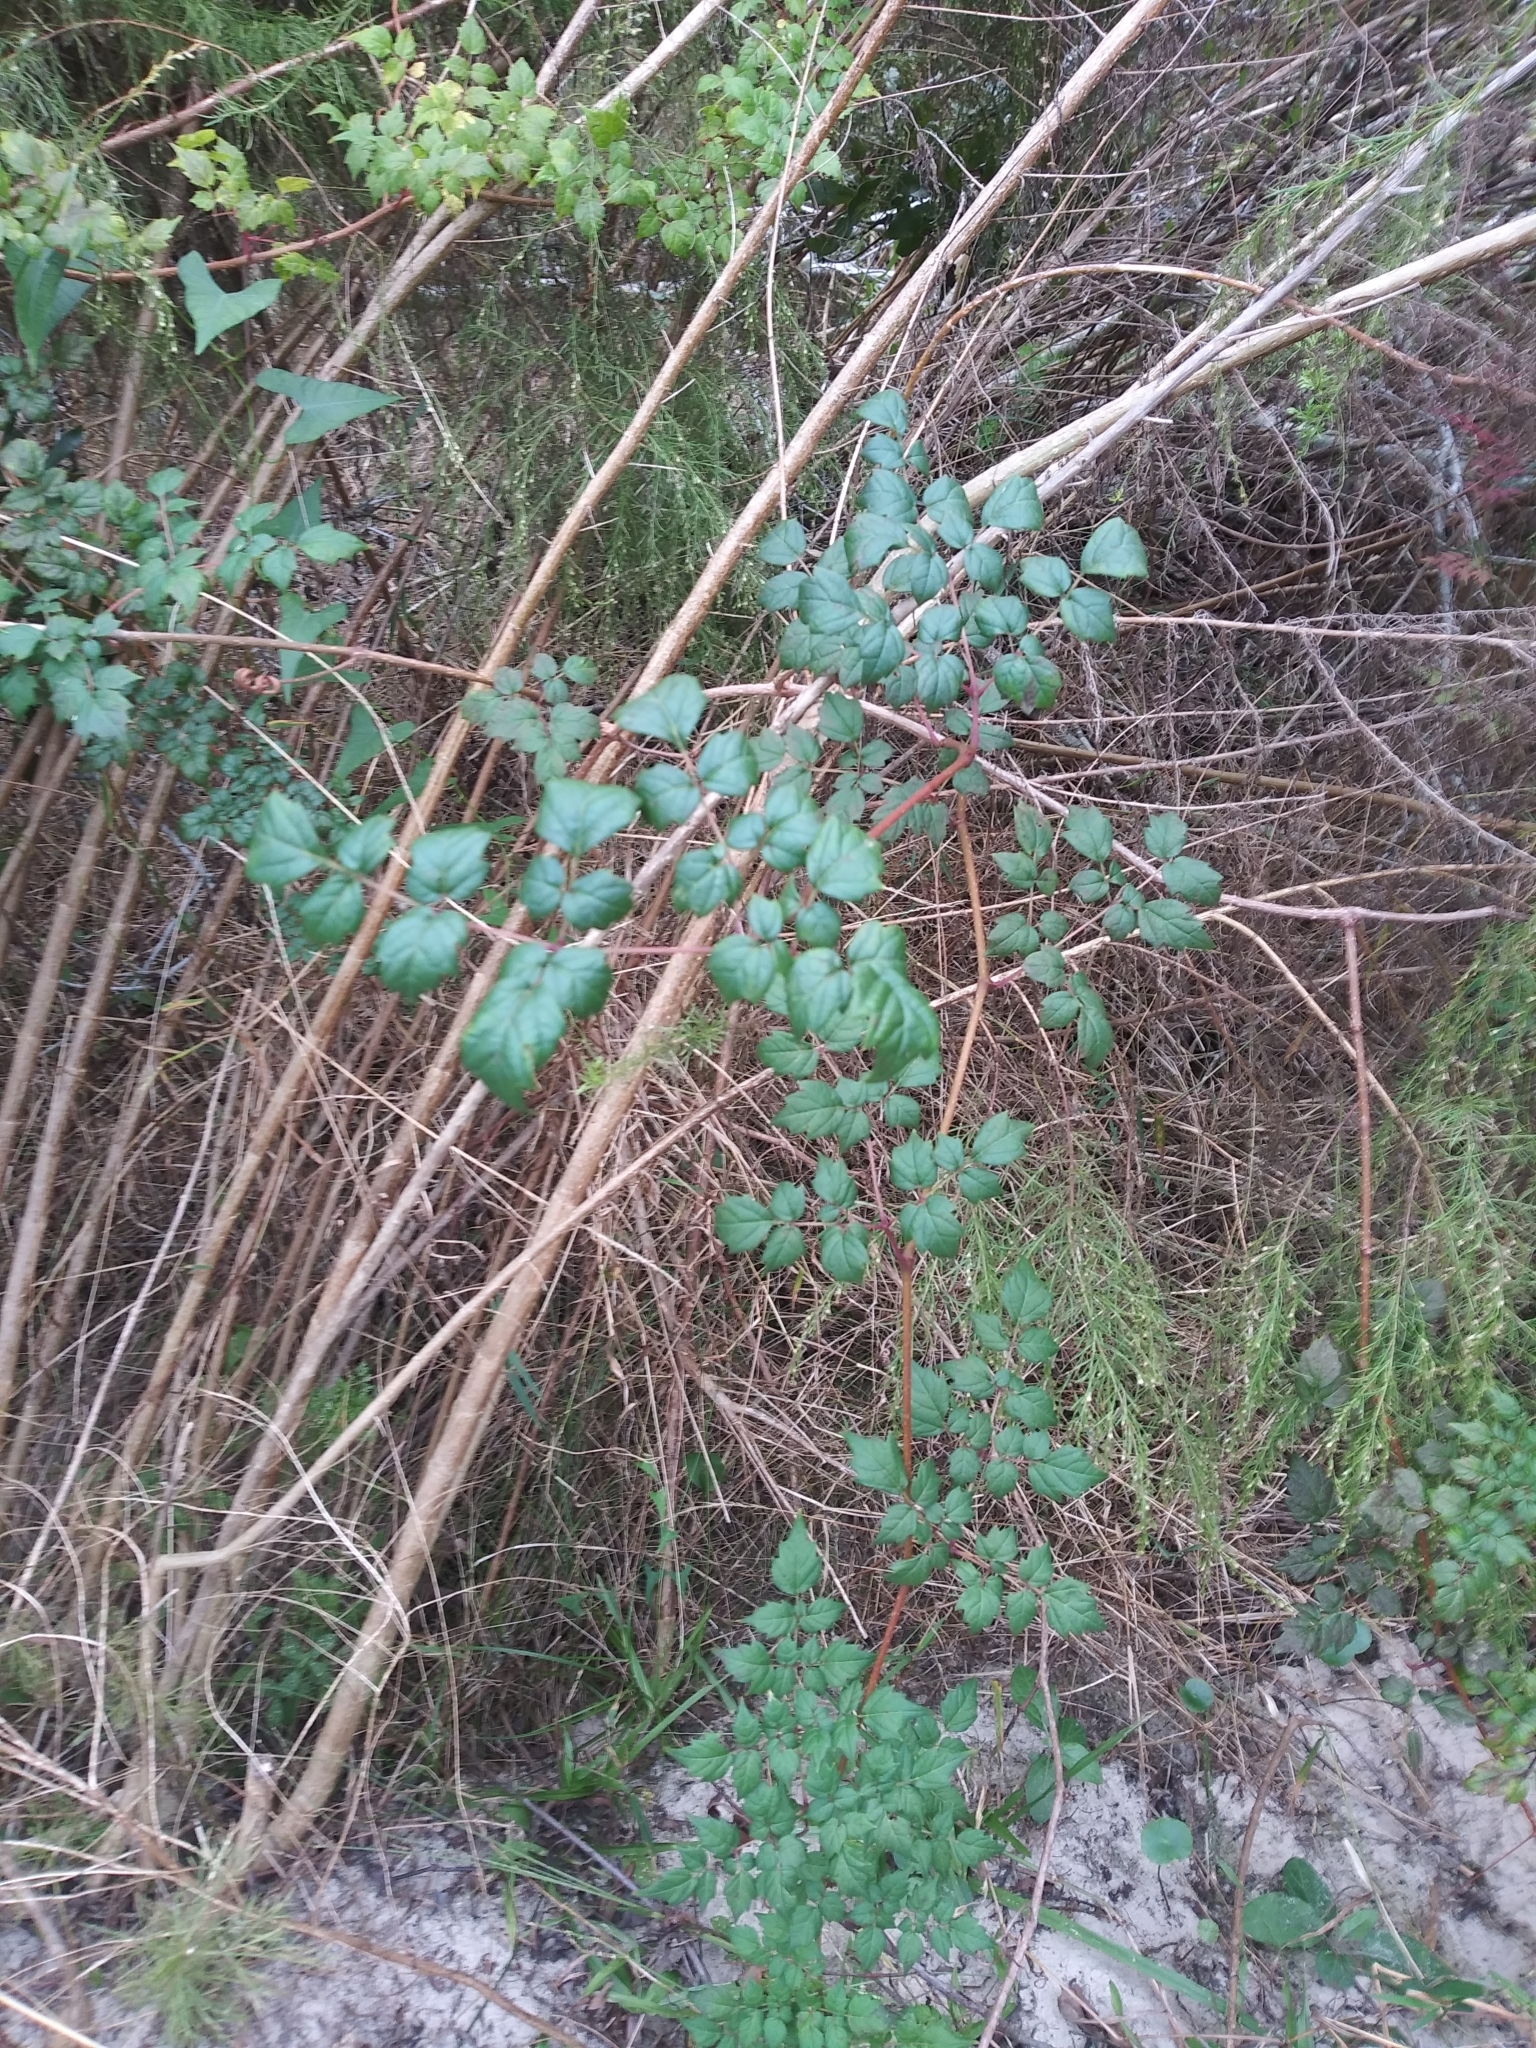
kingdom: Plantae
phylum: Tracheophyta
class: Magnoliopsida
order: Vitales
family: Vitaceae
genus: Nekemias
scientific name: Nekemias arborea
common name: Peppervine
